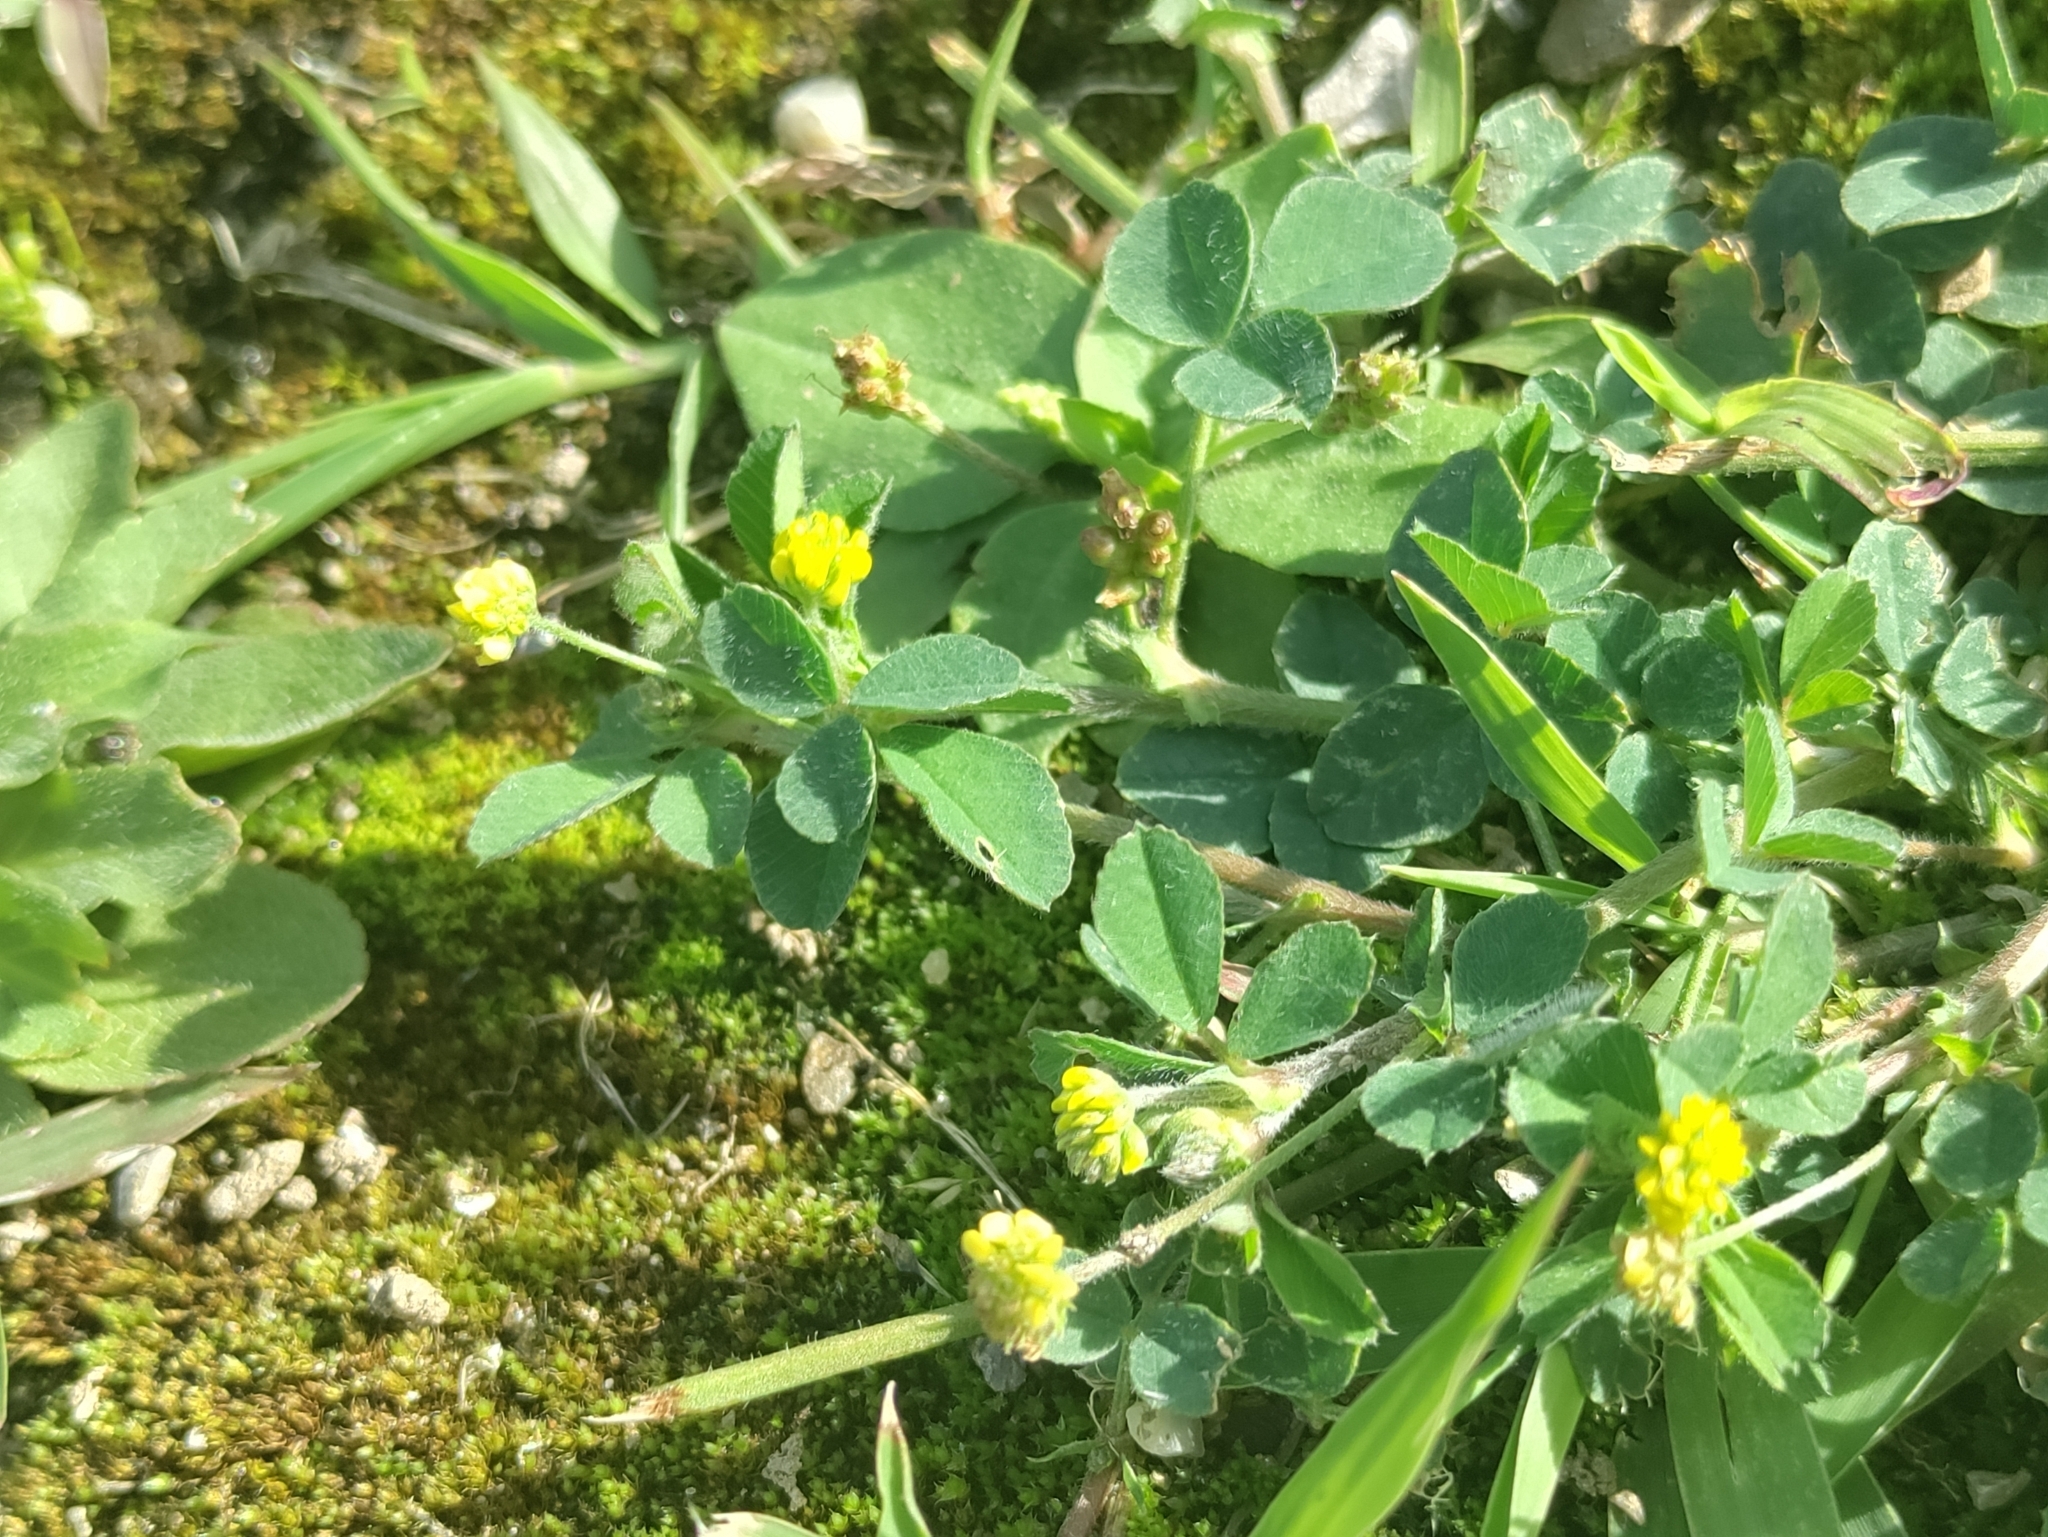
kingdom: Plantae
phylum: Tracheophyta
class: Magnoliopsida
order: Fabales
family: Fabaceae
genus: Medicago
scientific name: Medicago lupulina
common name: Black medick
